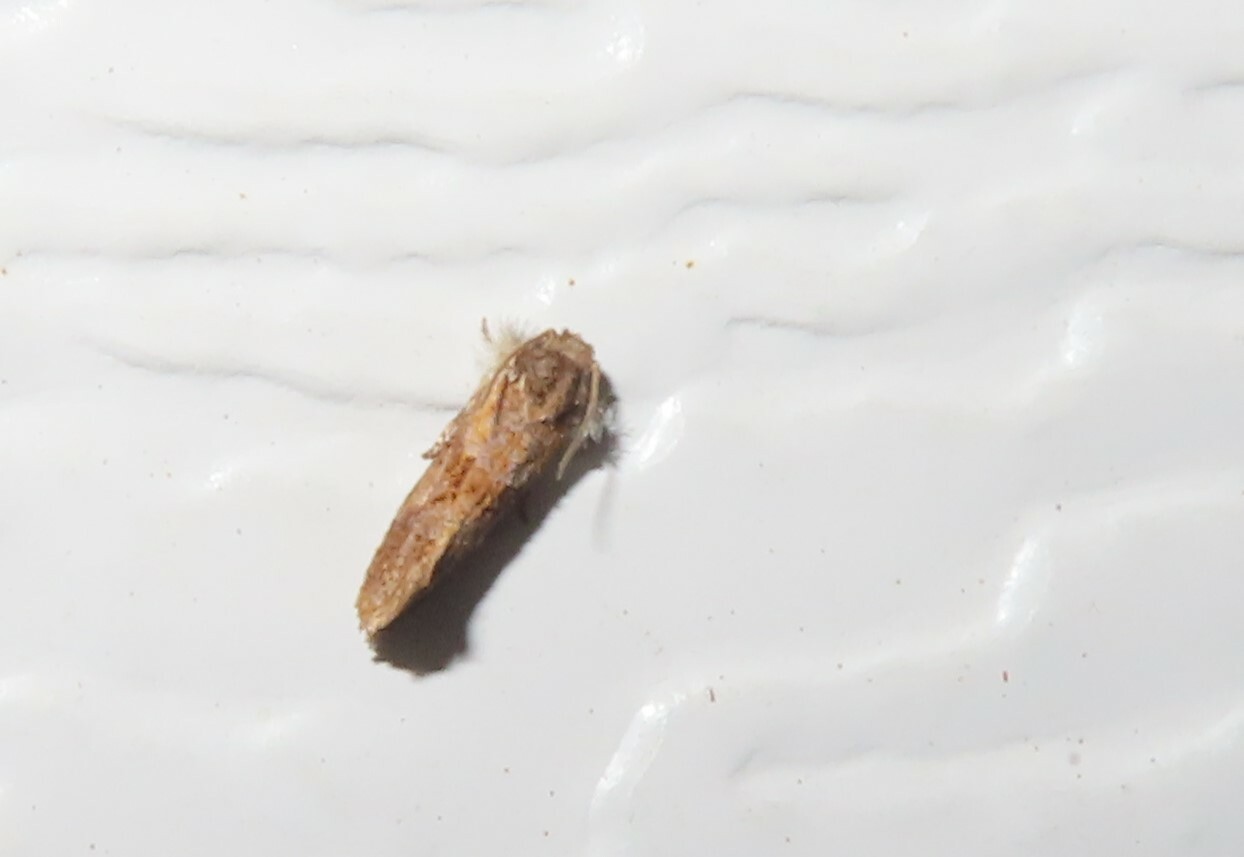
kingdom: Animalia
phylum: Arthropoda
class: Insecta
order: Lepidoptera
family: Tineidae
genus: Acrolophus
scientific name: Acrolophus panamae
